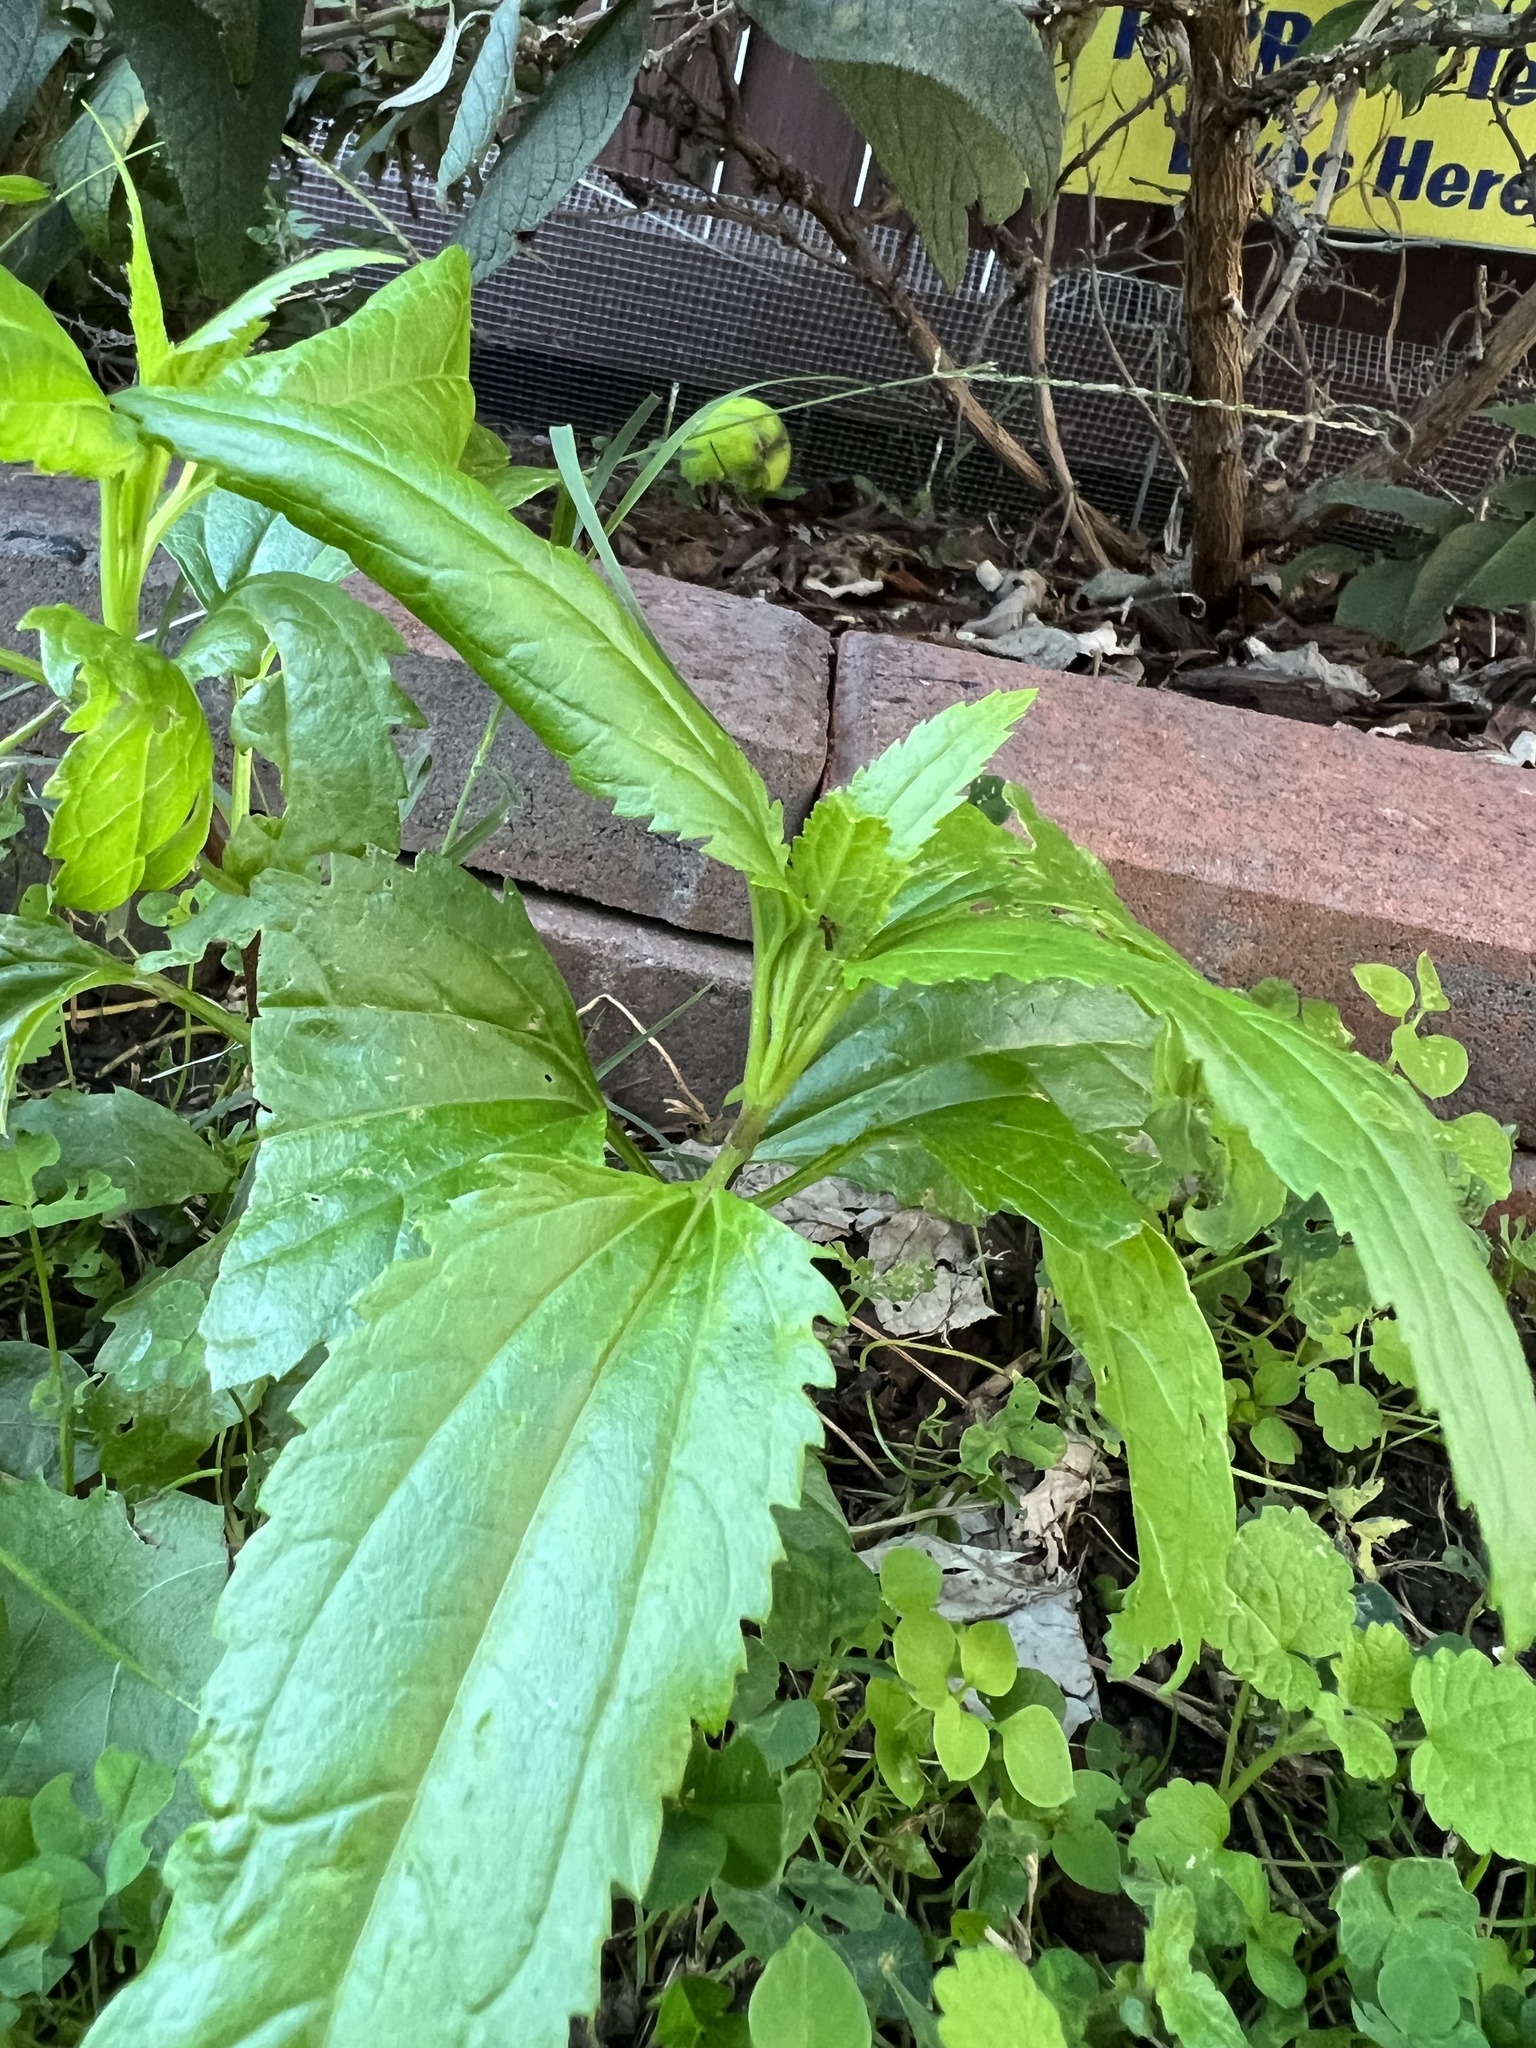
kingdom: Plantae
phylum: Tracheophyta
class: Magnoliopsida
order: Asterales
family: Asteraceae
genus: Eupatorium
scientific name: Eupatorium serotinum
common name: Late boneset
